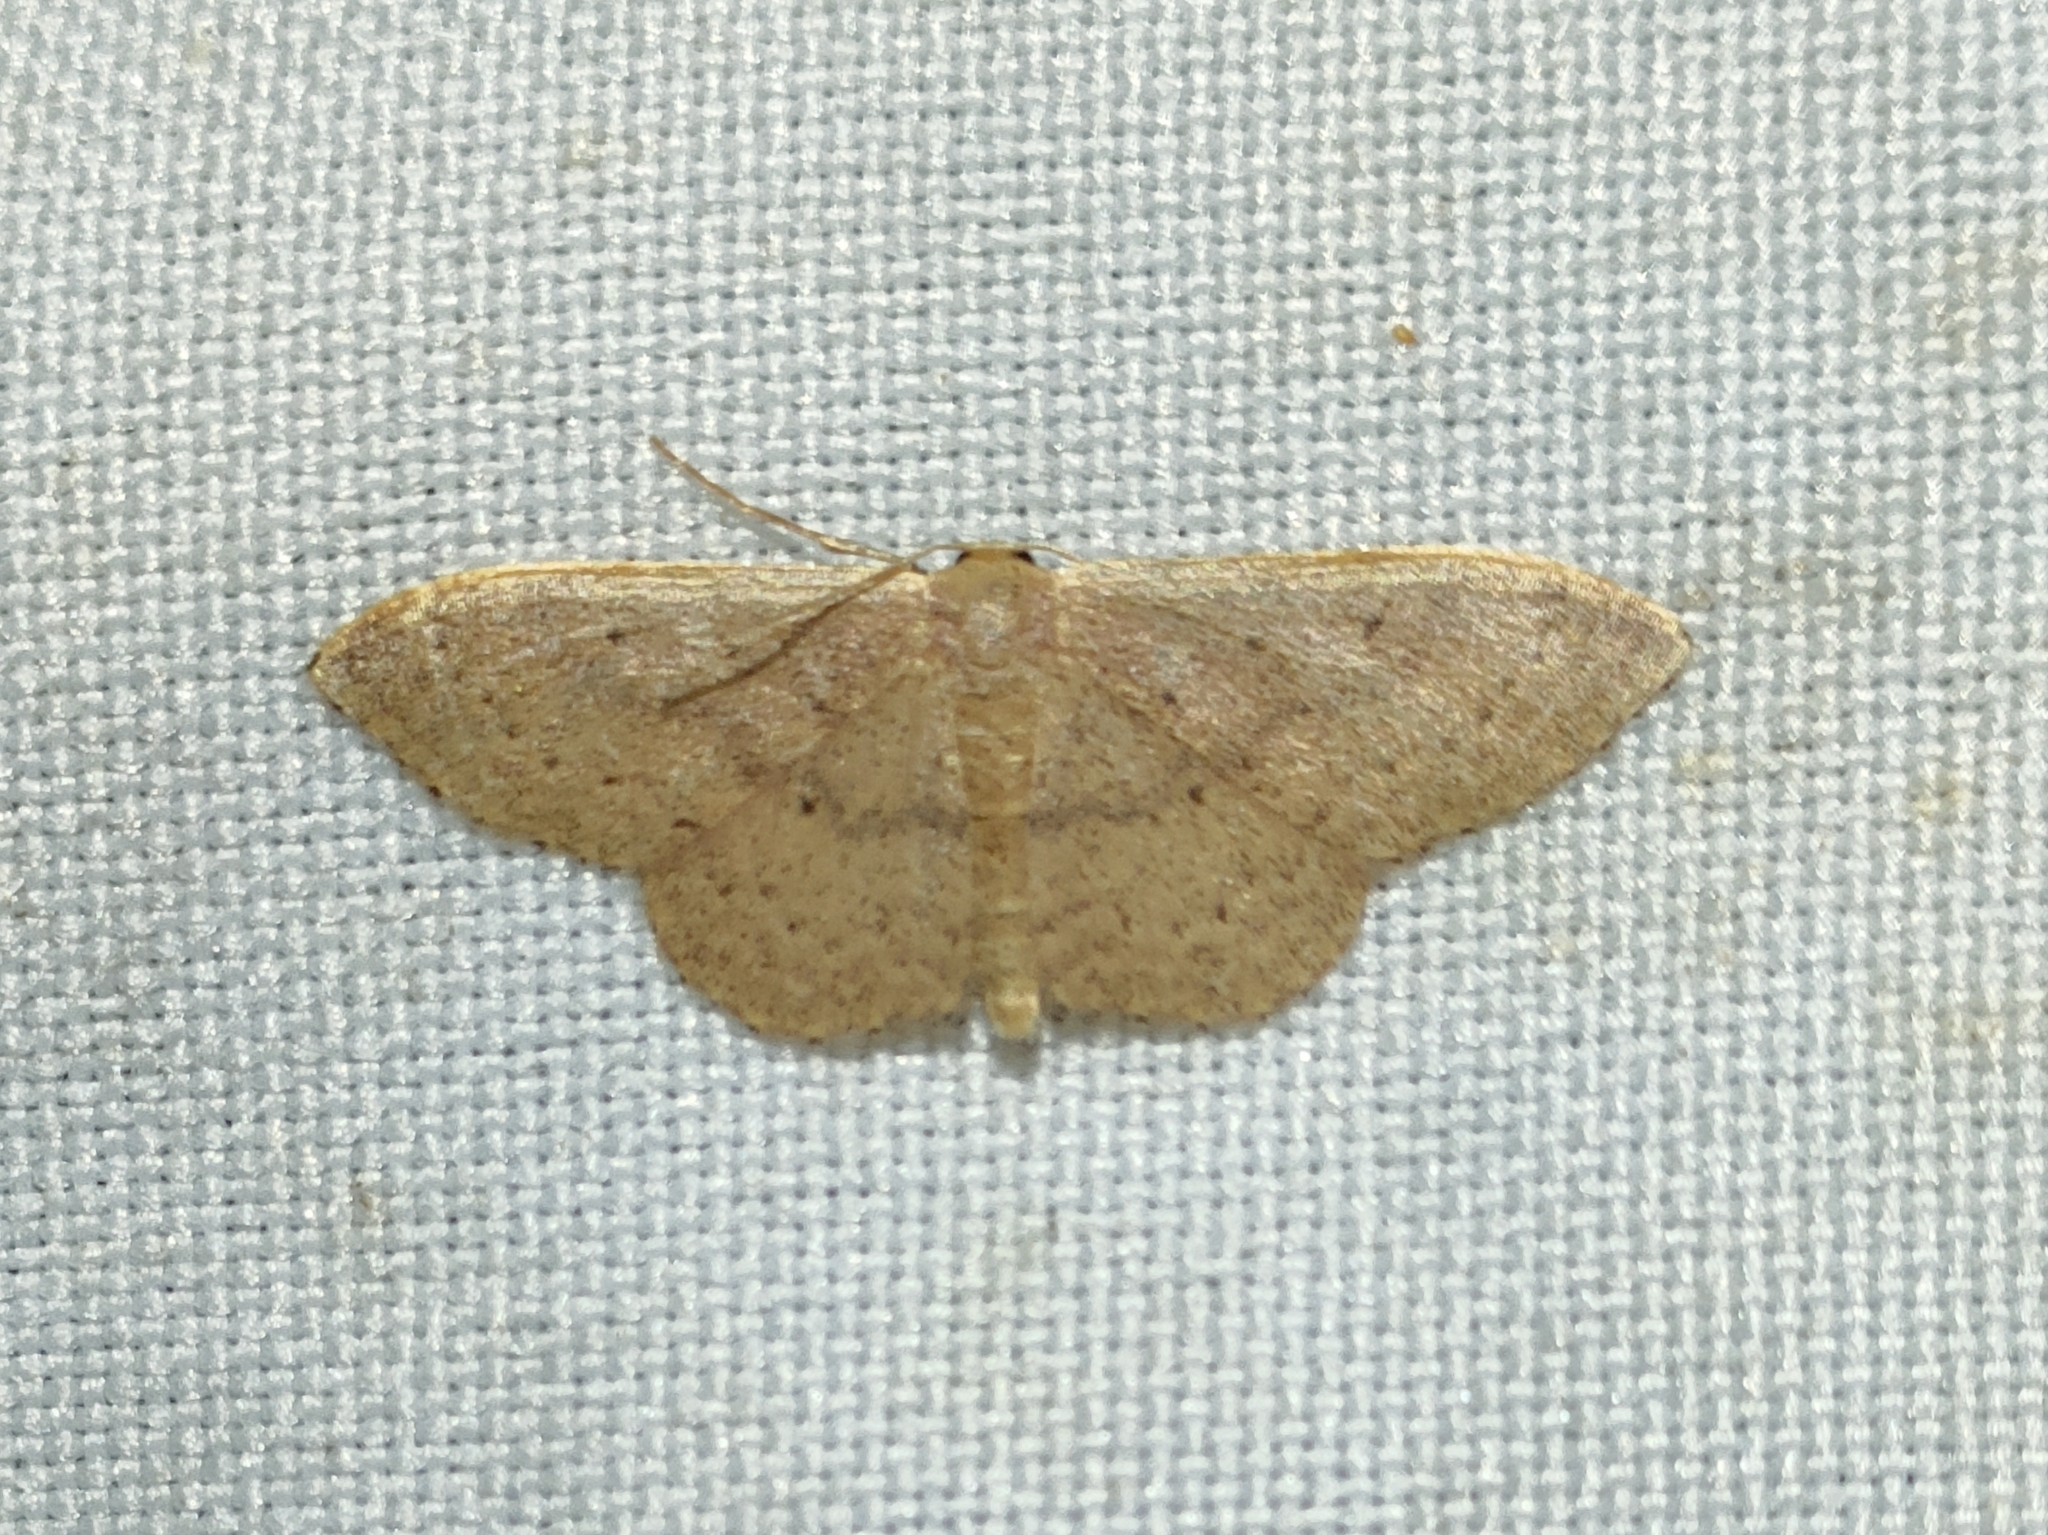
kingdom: Animalia
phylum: Arthropoda
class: Insecta
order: Lepidoptera
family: Geometridae
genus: Idaea
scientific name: Idaea eugeniata
